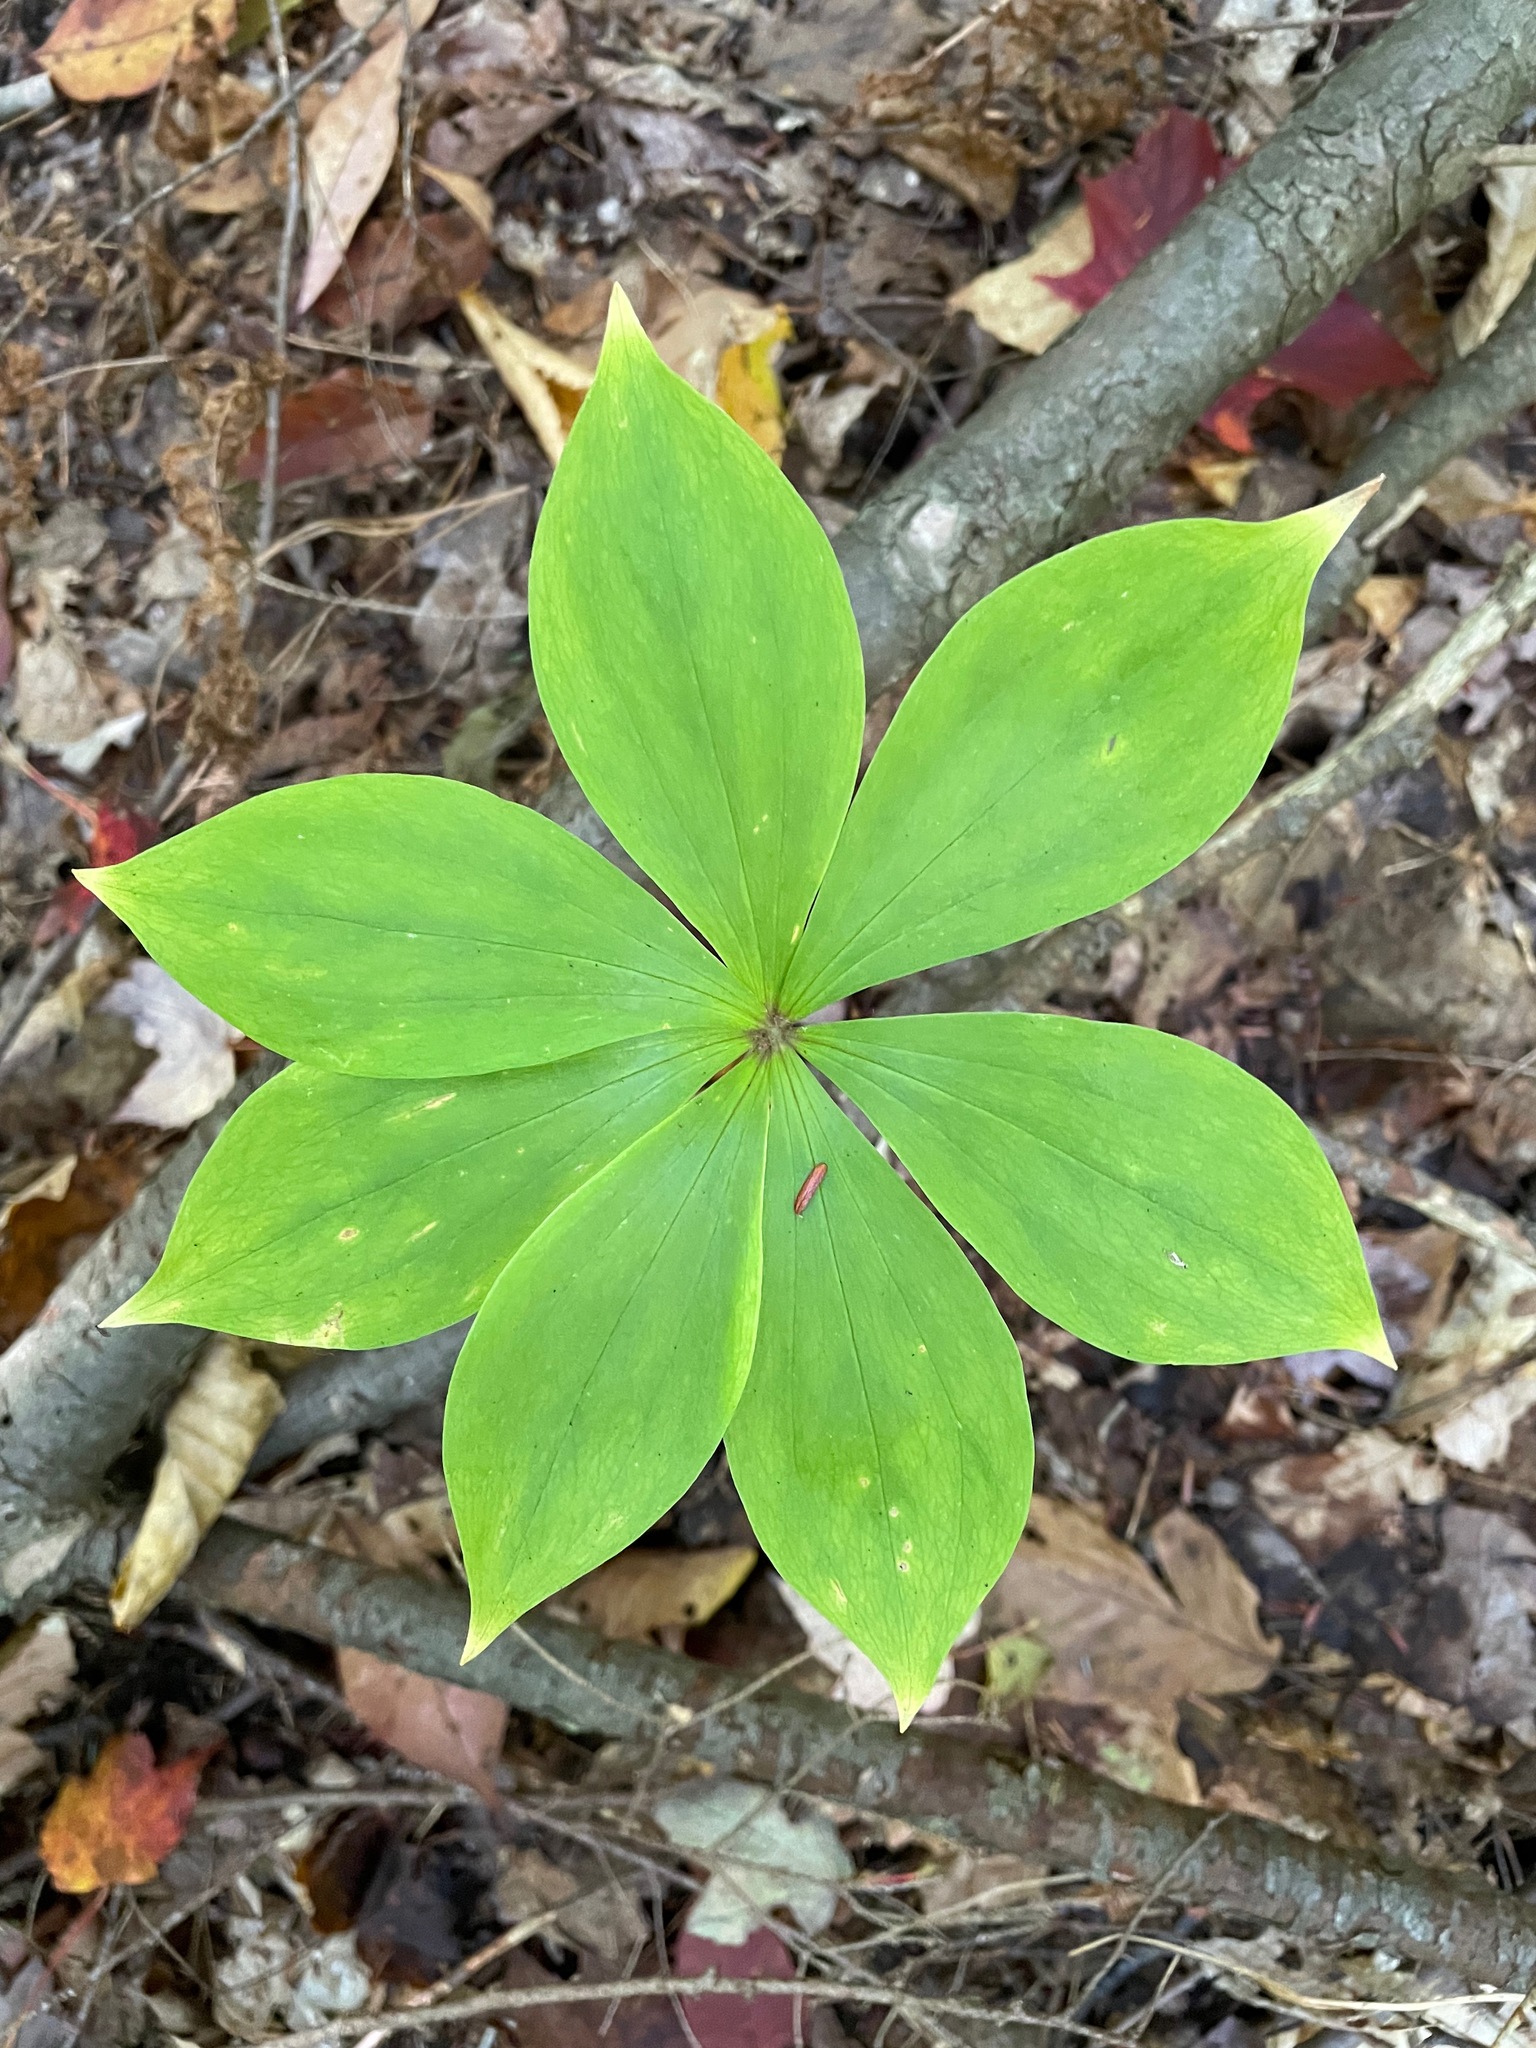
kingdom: Plantae
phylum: Tracheophyta
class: Liliopsida
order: Liliales
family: Liliaceae
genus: Medeola
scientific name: Medeola virginiana
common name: Indian cucumber-root
